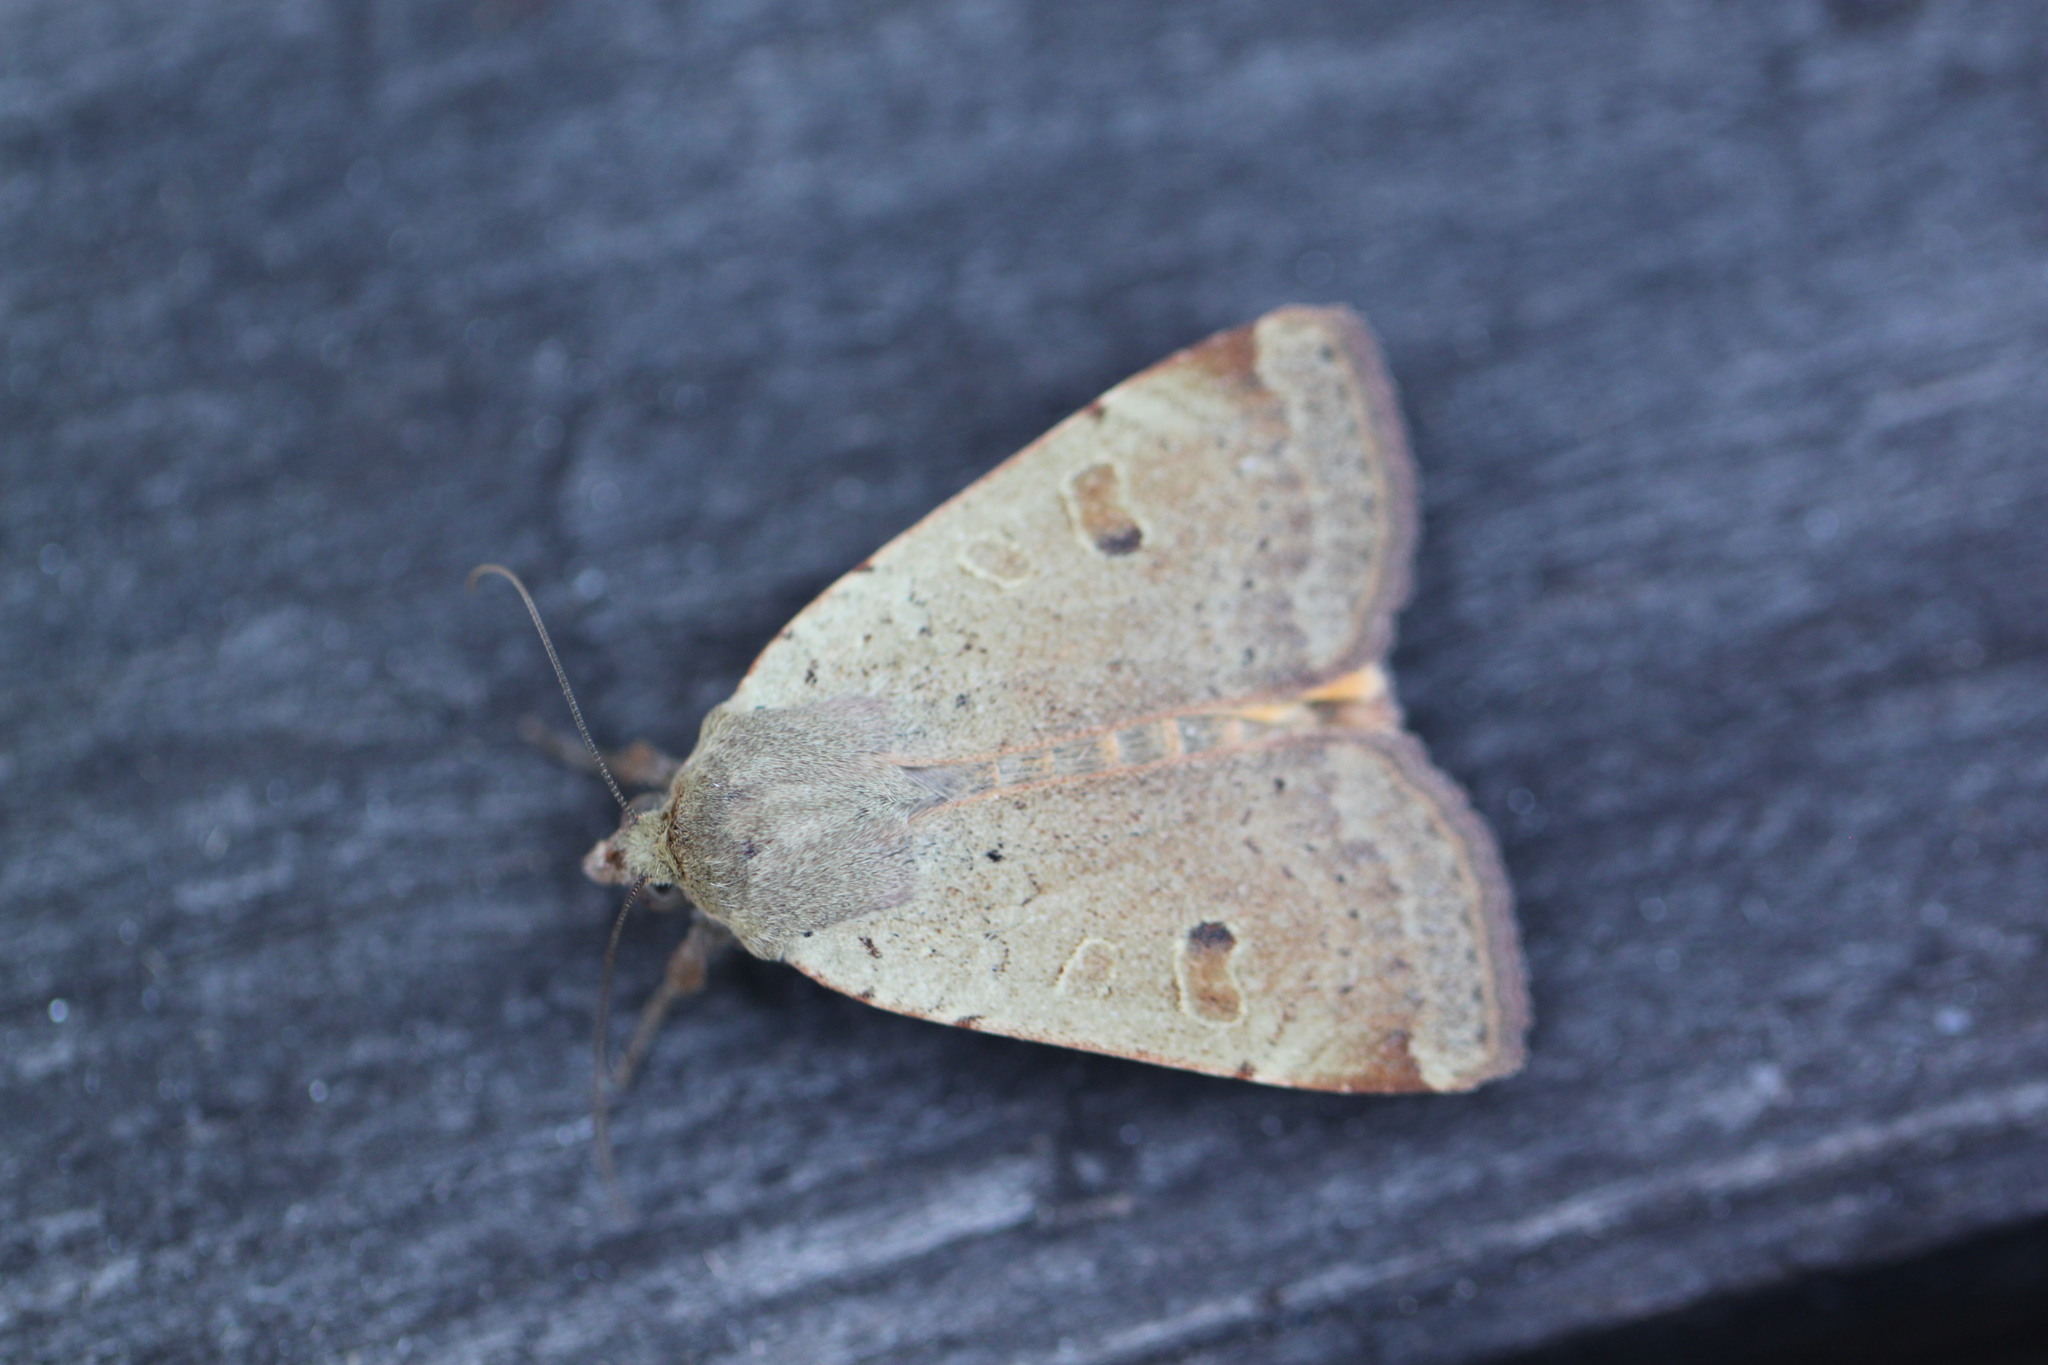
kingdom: Animalia
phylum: Arthropoda
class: Insecta
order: Lepidoptera
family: Noctuidae
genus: Noctua
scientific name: Noctua comes
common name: Lesser yellow underwing
